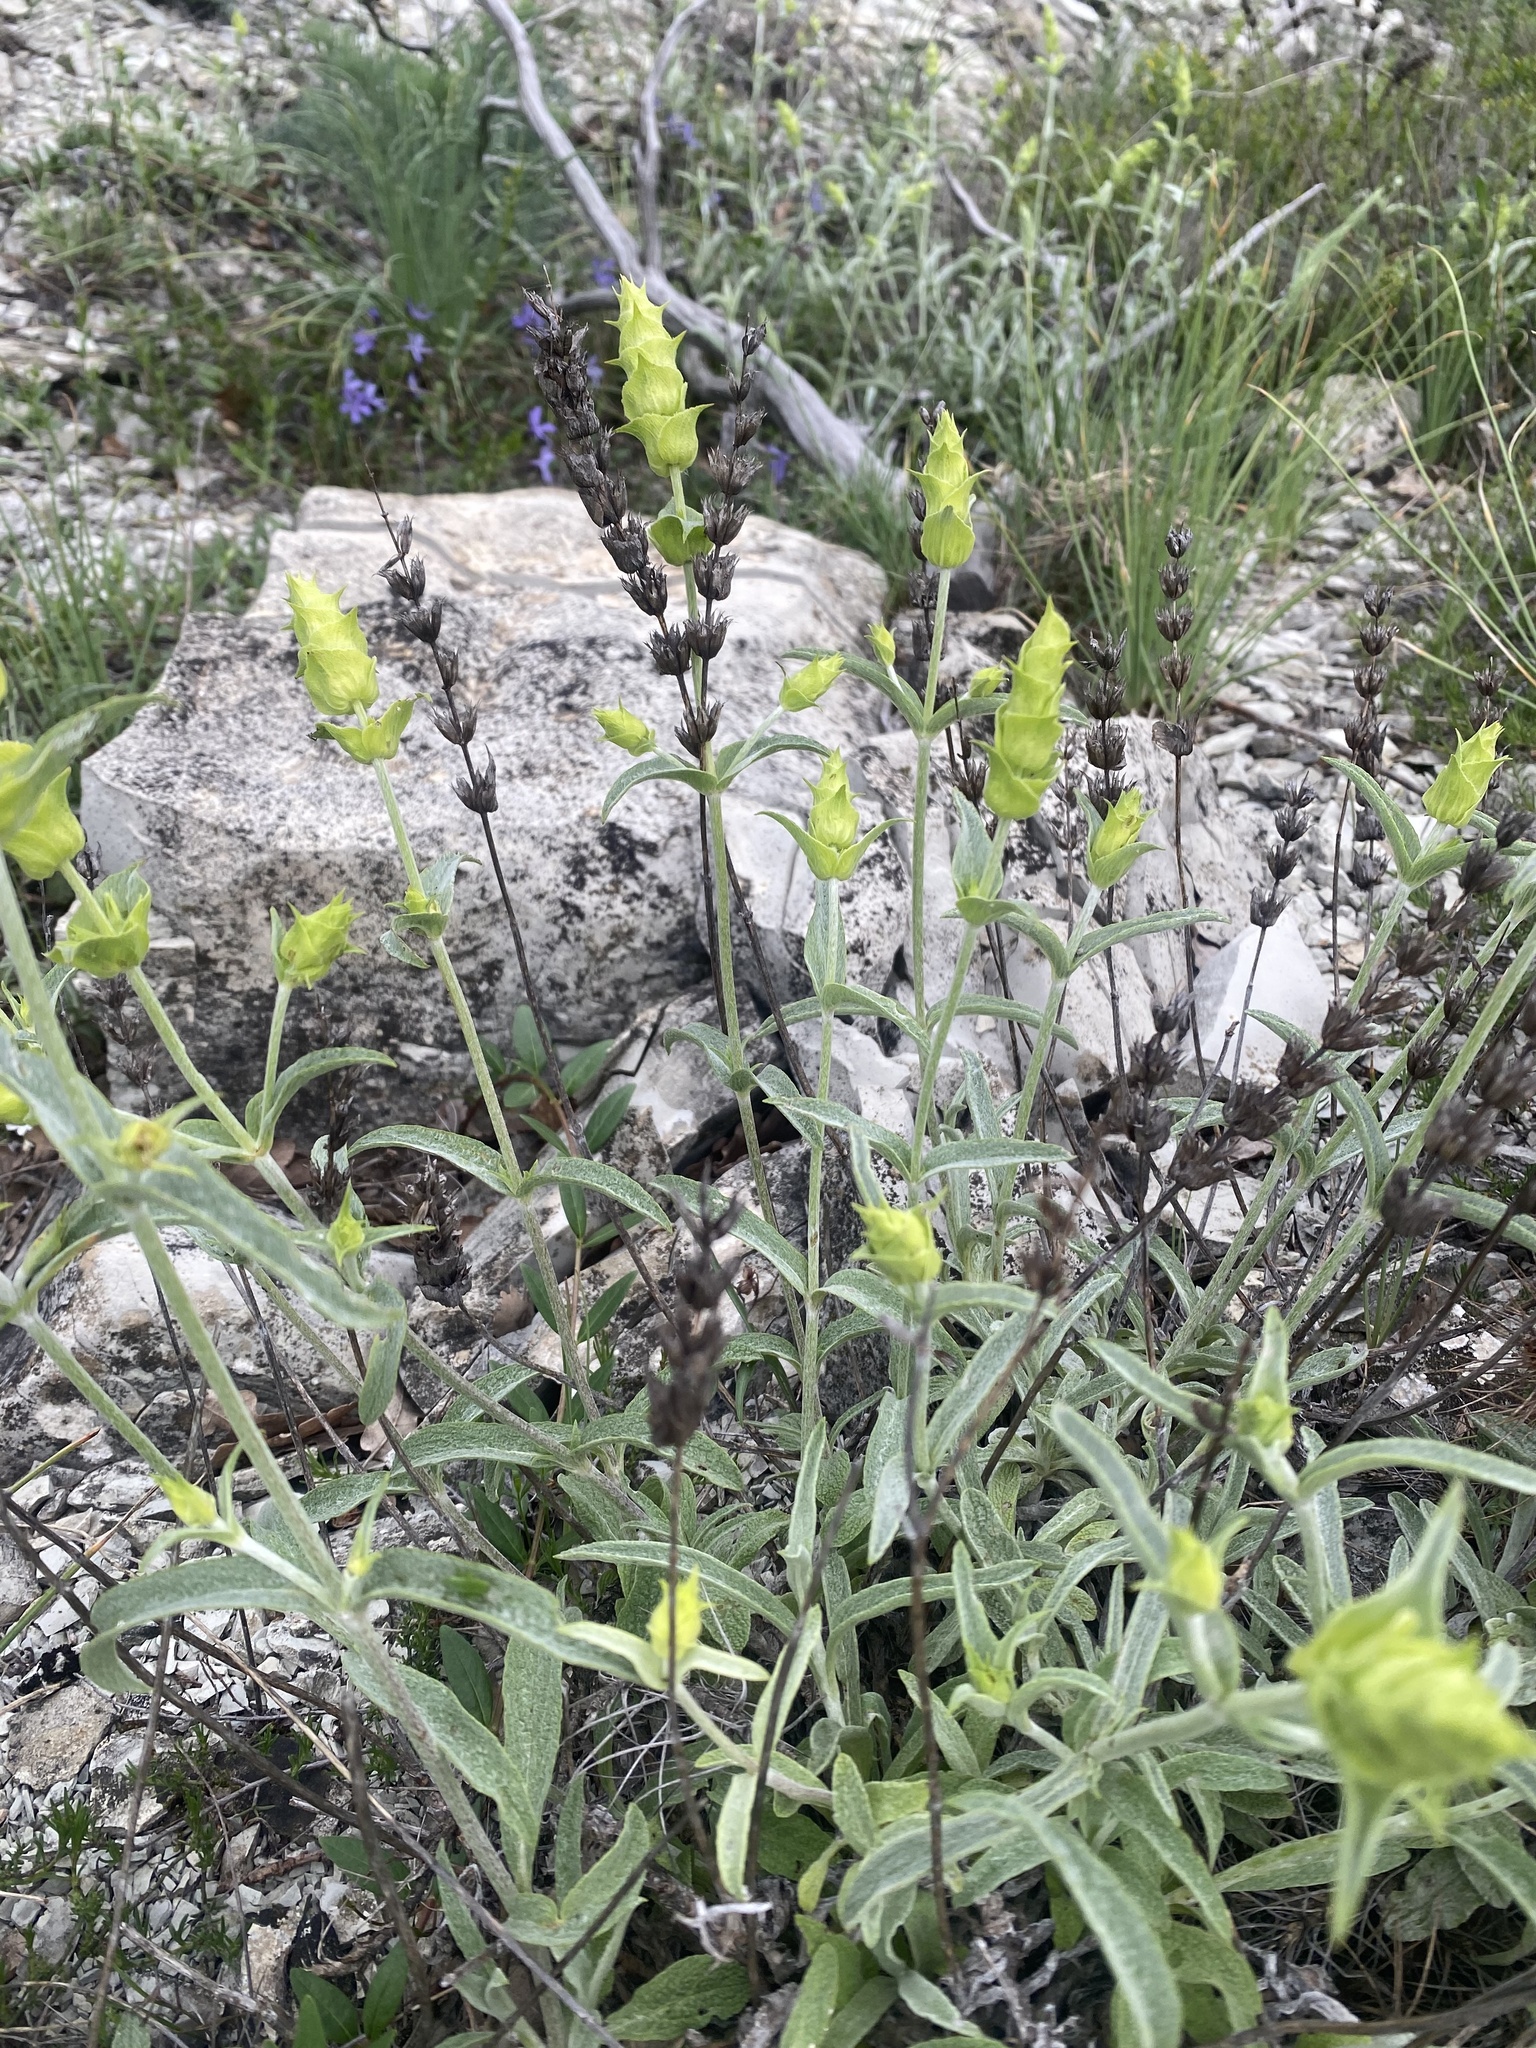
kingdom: Plantae
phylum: Tracheophyta
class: Magnoliopsida
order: Lamiales
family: Lamiaceae
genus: Sideritis
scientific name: Sideritis euxina
